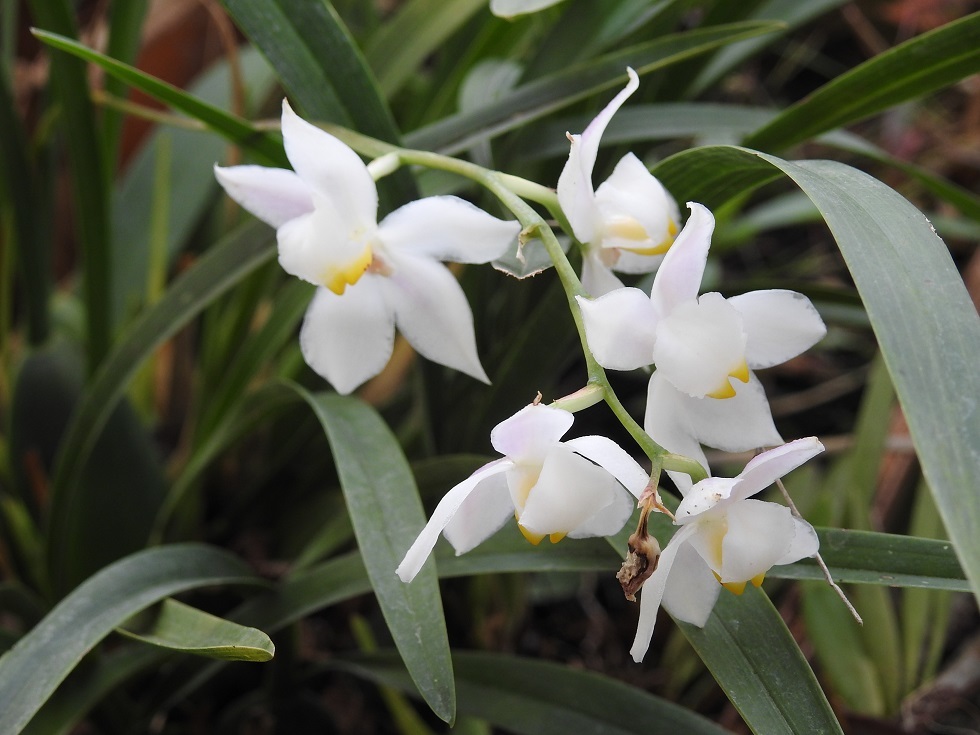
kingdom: Plantae
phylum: Tracheophyta
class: Liliopsida
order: Asparagales
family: Orchidaceae
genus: Cuitlauzina
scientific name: Cuitlauzina pulchella
